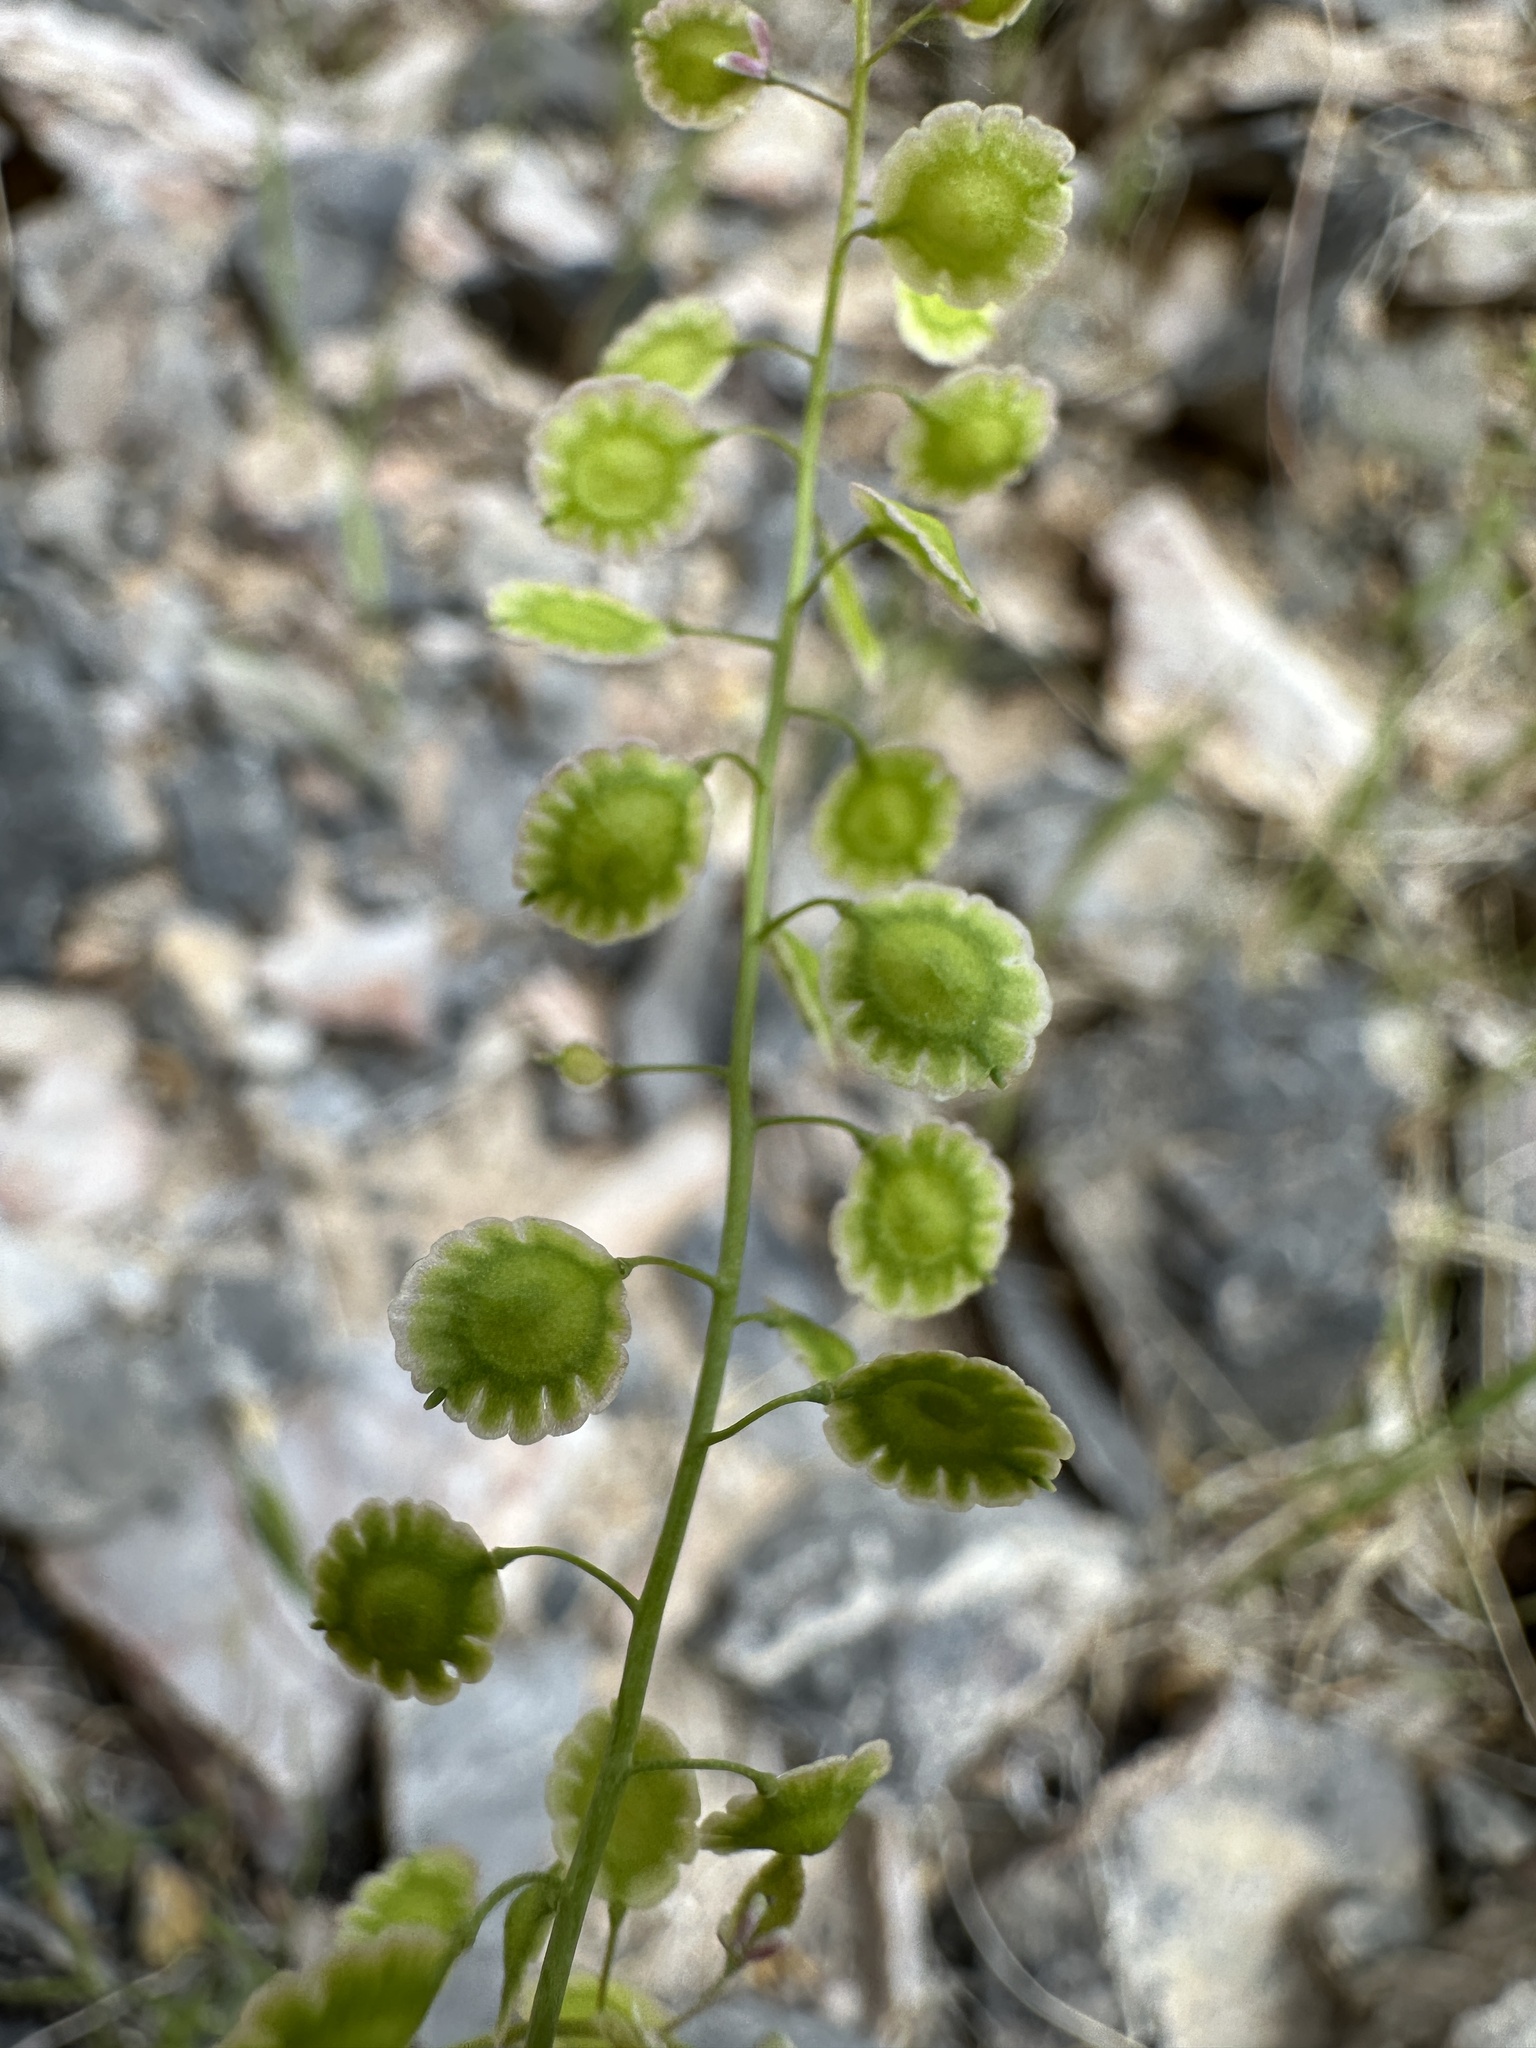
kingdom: Plantae
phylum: Tracheophyta
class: Magnoliopsida
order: Brassicales
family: Brassicaceae
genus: Thysanocarpus
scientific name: Thysanocarpus curvipes
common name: Sand fringepod
